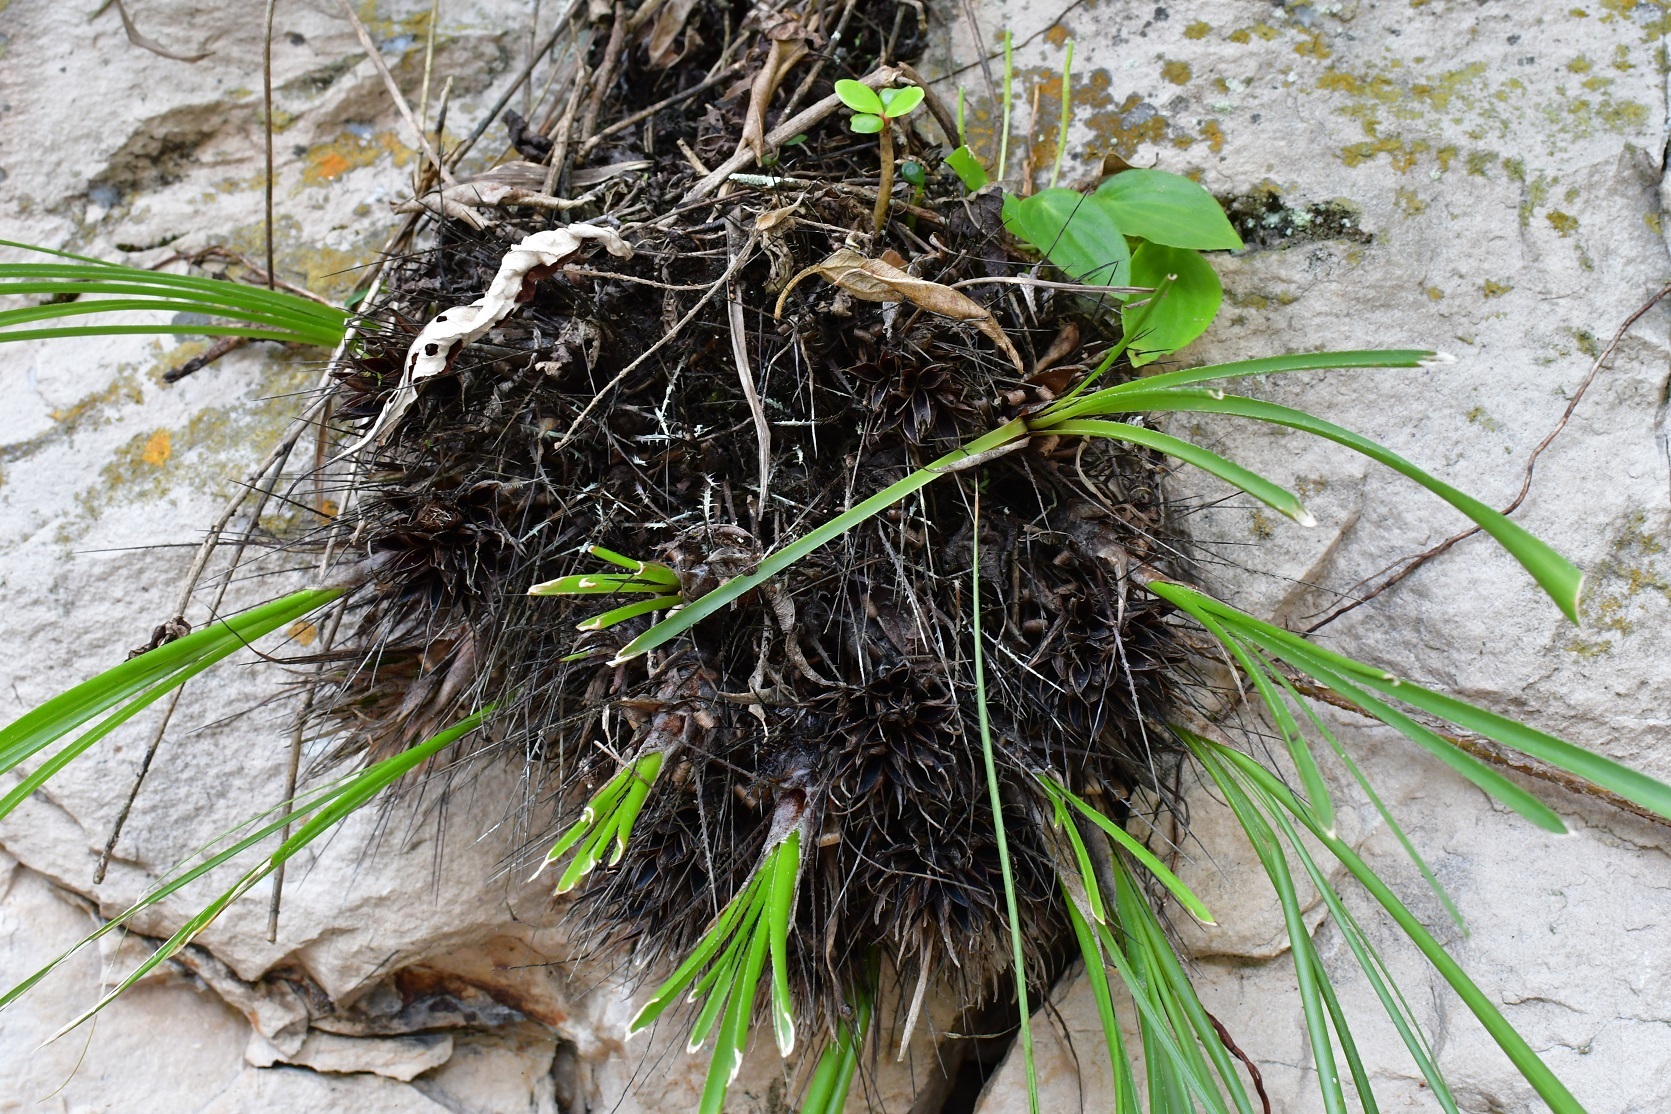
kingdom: Plantae
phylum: Tracheophyta
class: Liliopsida
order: Poales
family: Bromeliaceae
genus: Pitcairnia
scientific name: Pitcairnia heterophylla
